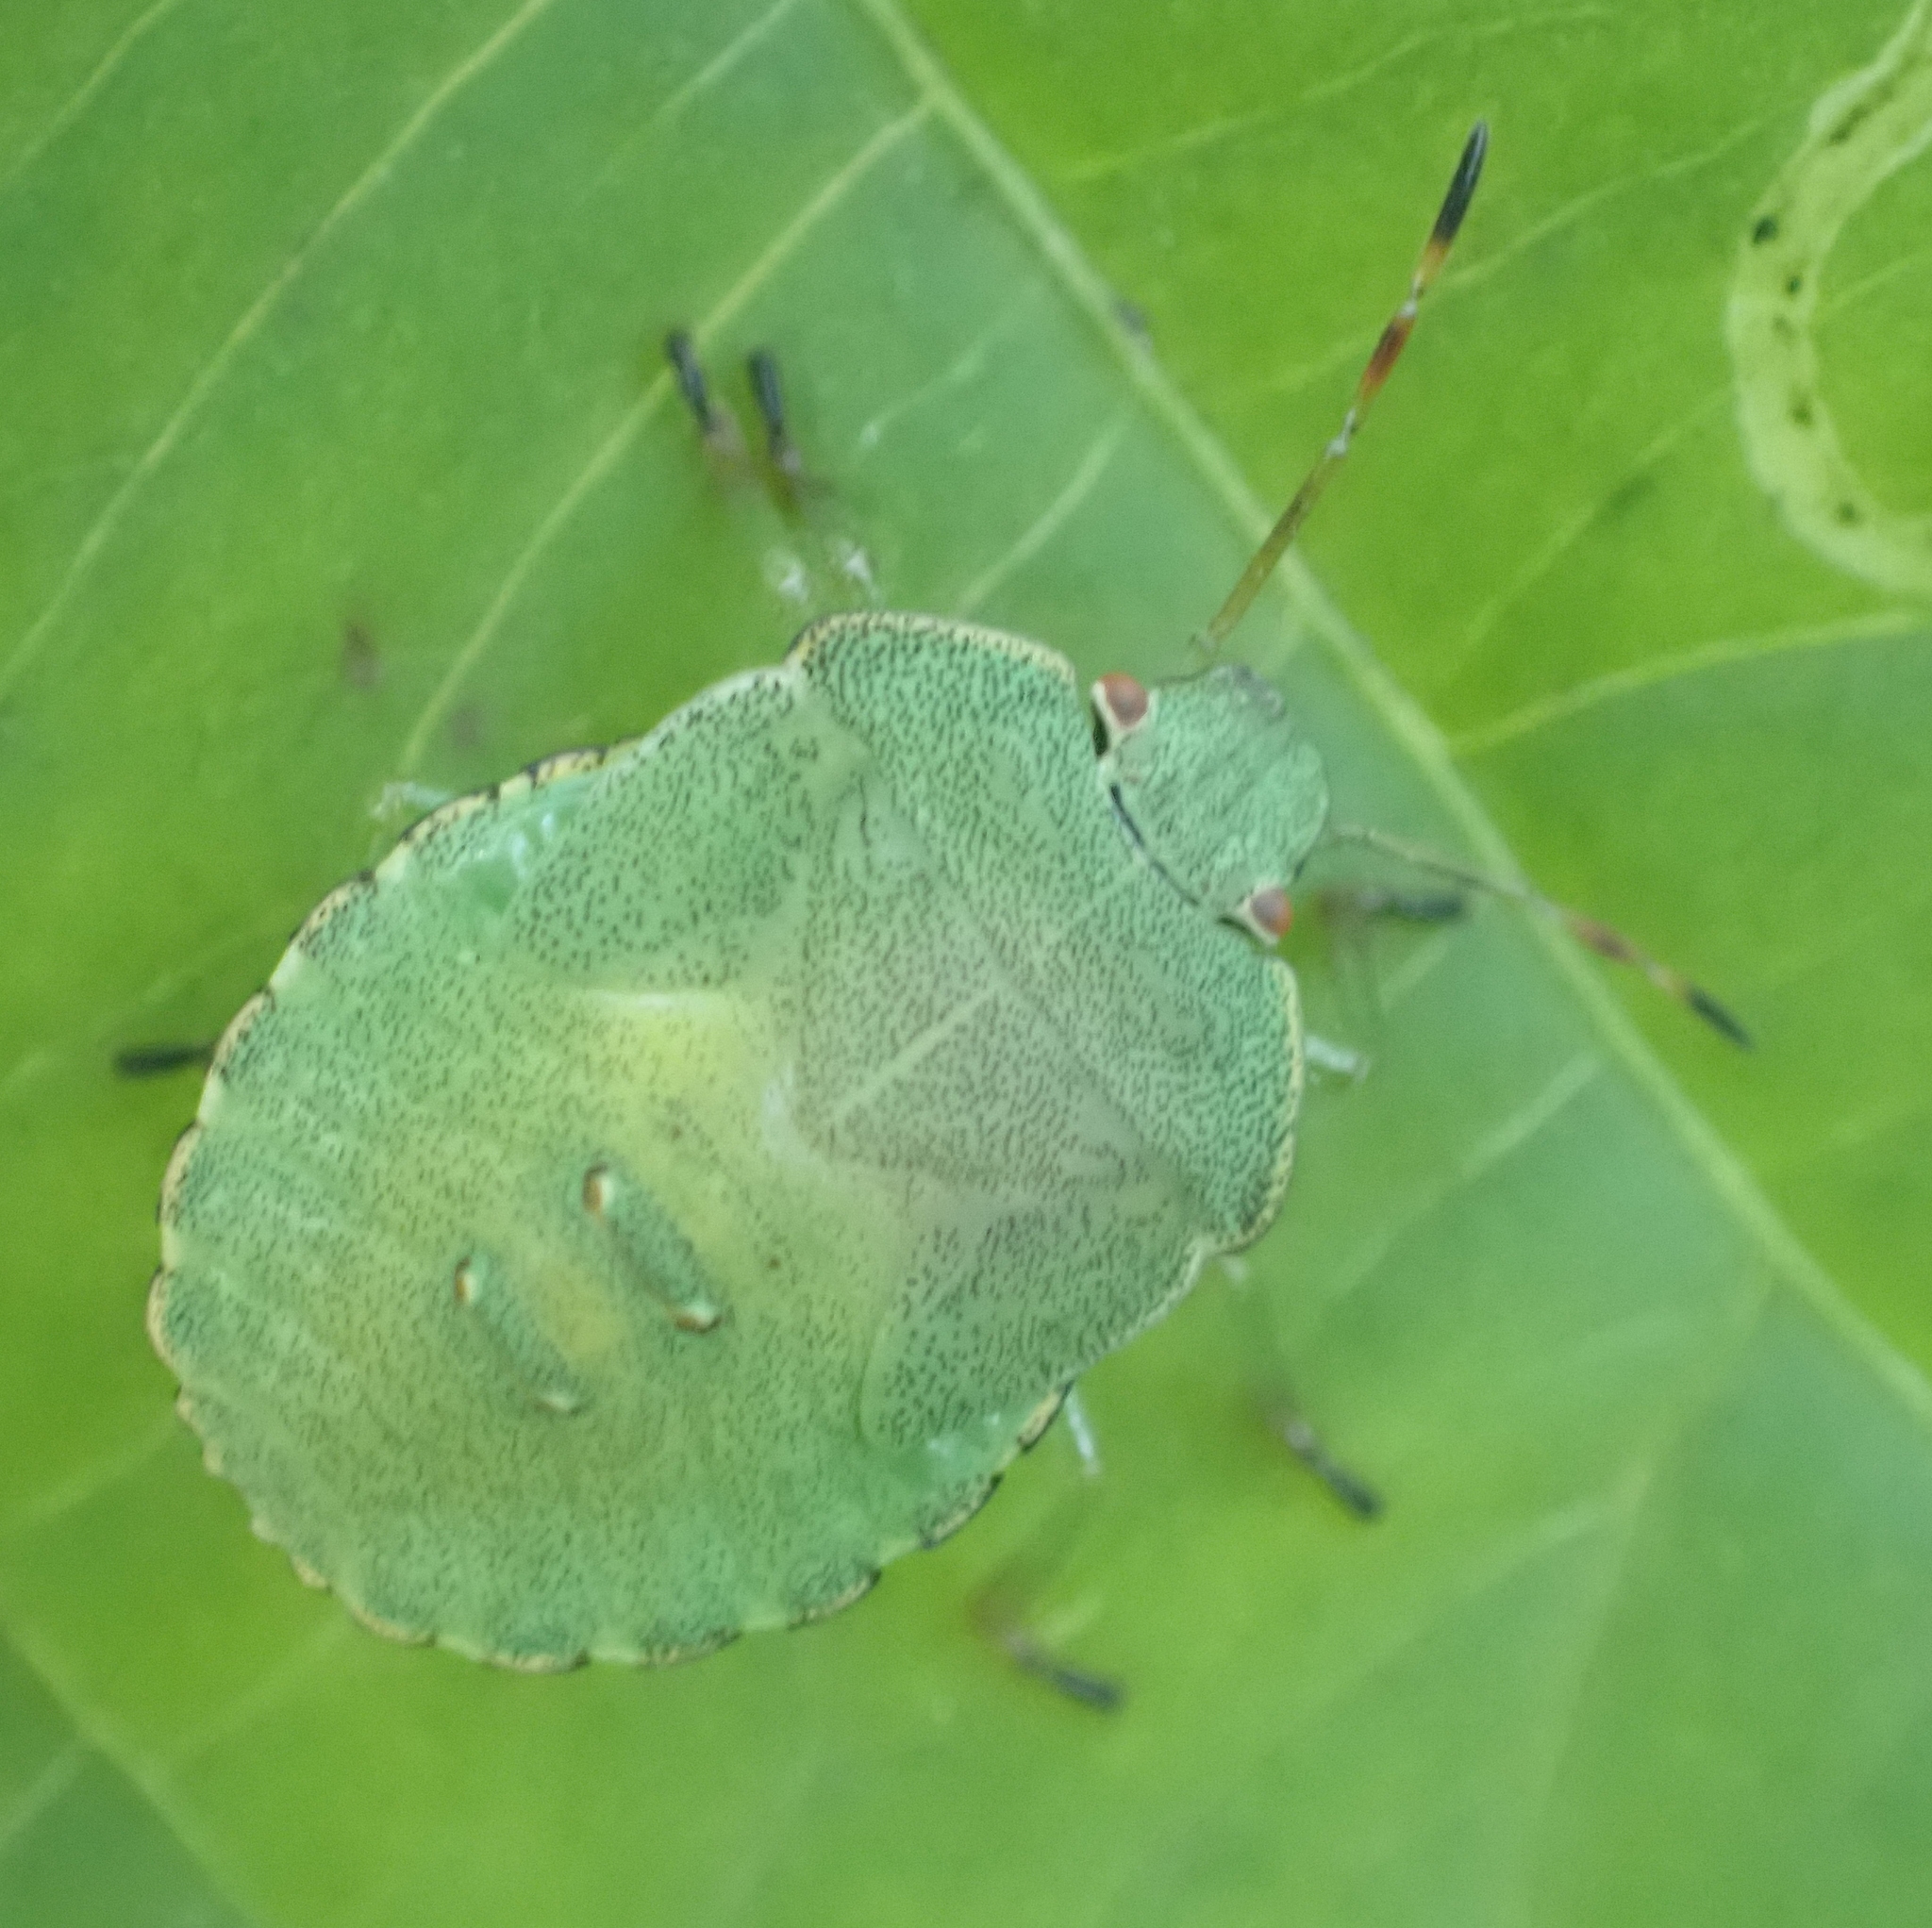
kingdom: Animalia
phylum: Arthropoda
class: Insecta
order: Hemiptera
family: Pentatomidae
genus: Palomena
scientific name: Palomena prasina
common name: Green shieldbug
